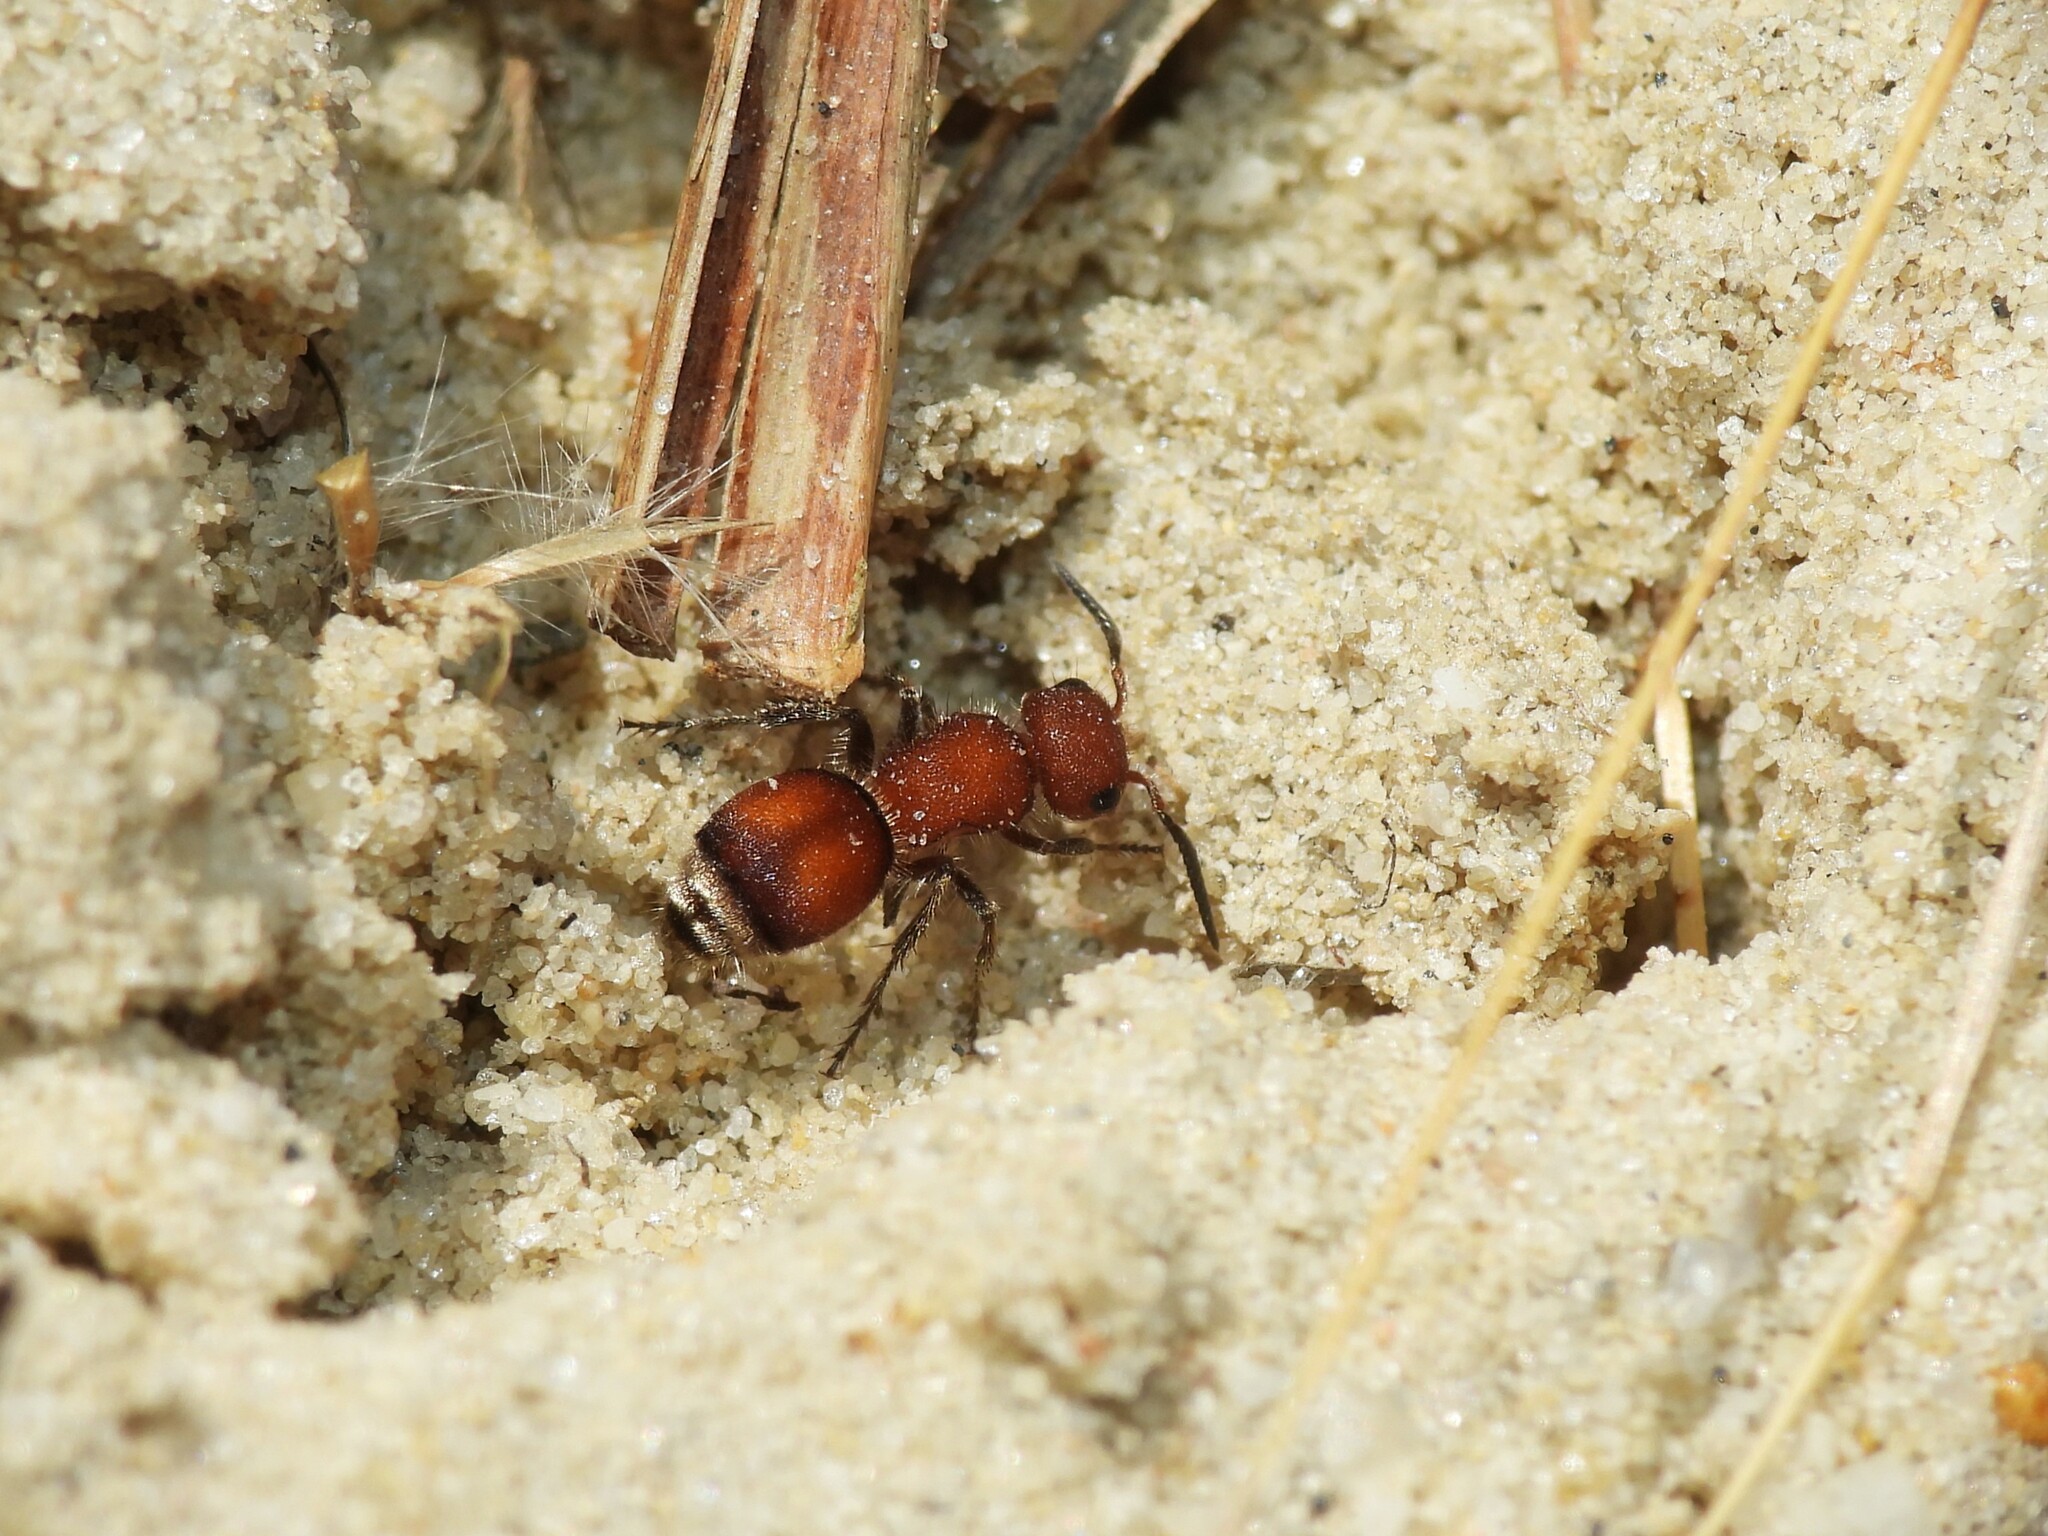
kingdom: Animalia
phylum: Arthropoda
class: Insecta
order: Hymenoptera
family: Mutillidae
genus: Pseudomethoca
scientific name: Pseudomethoca
